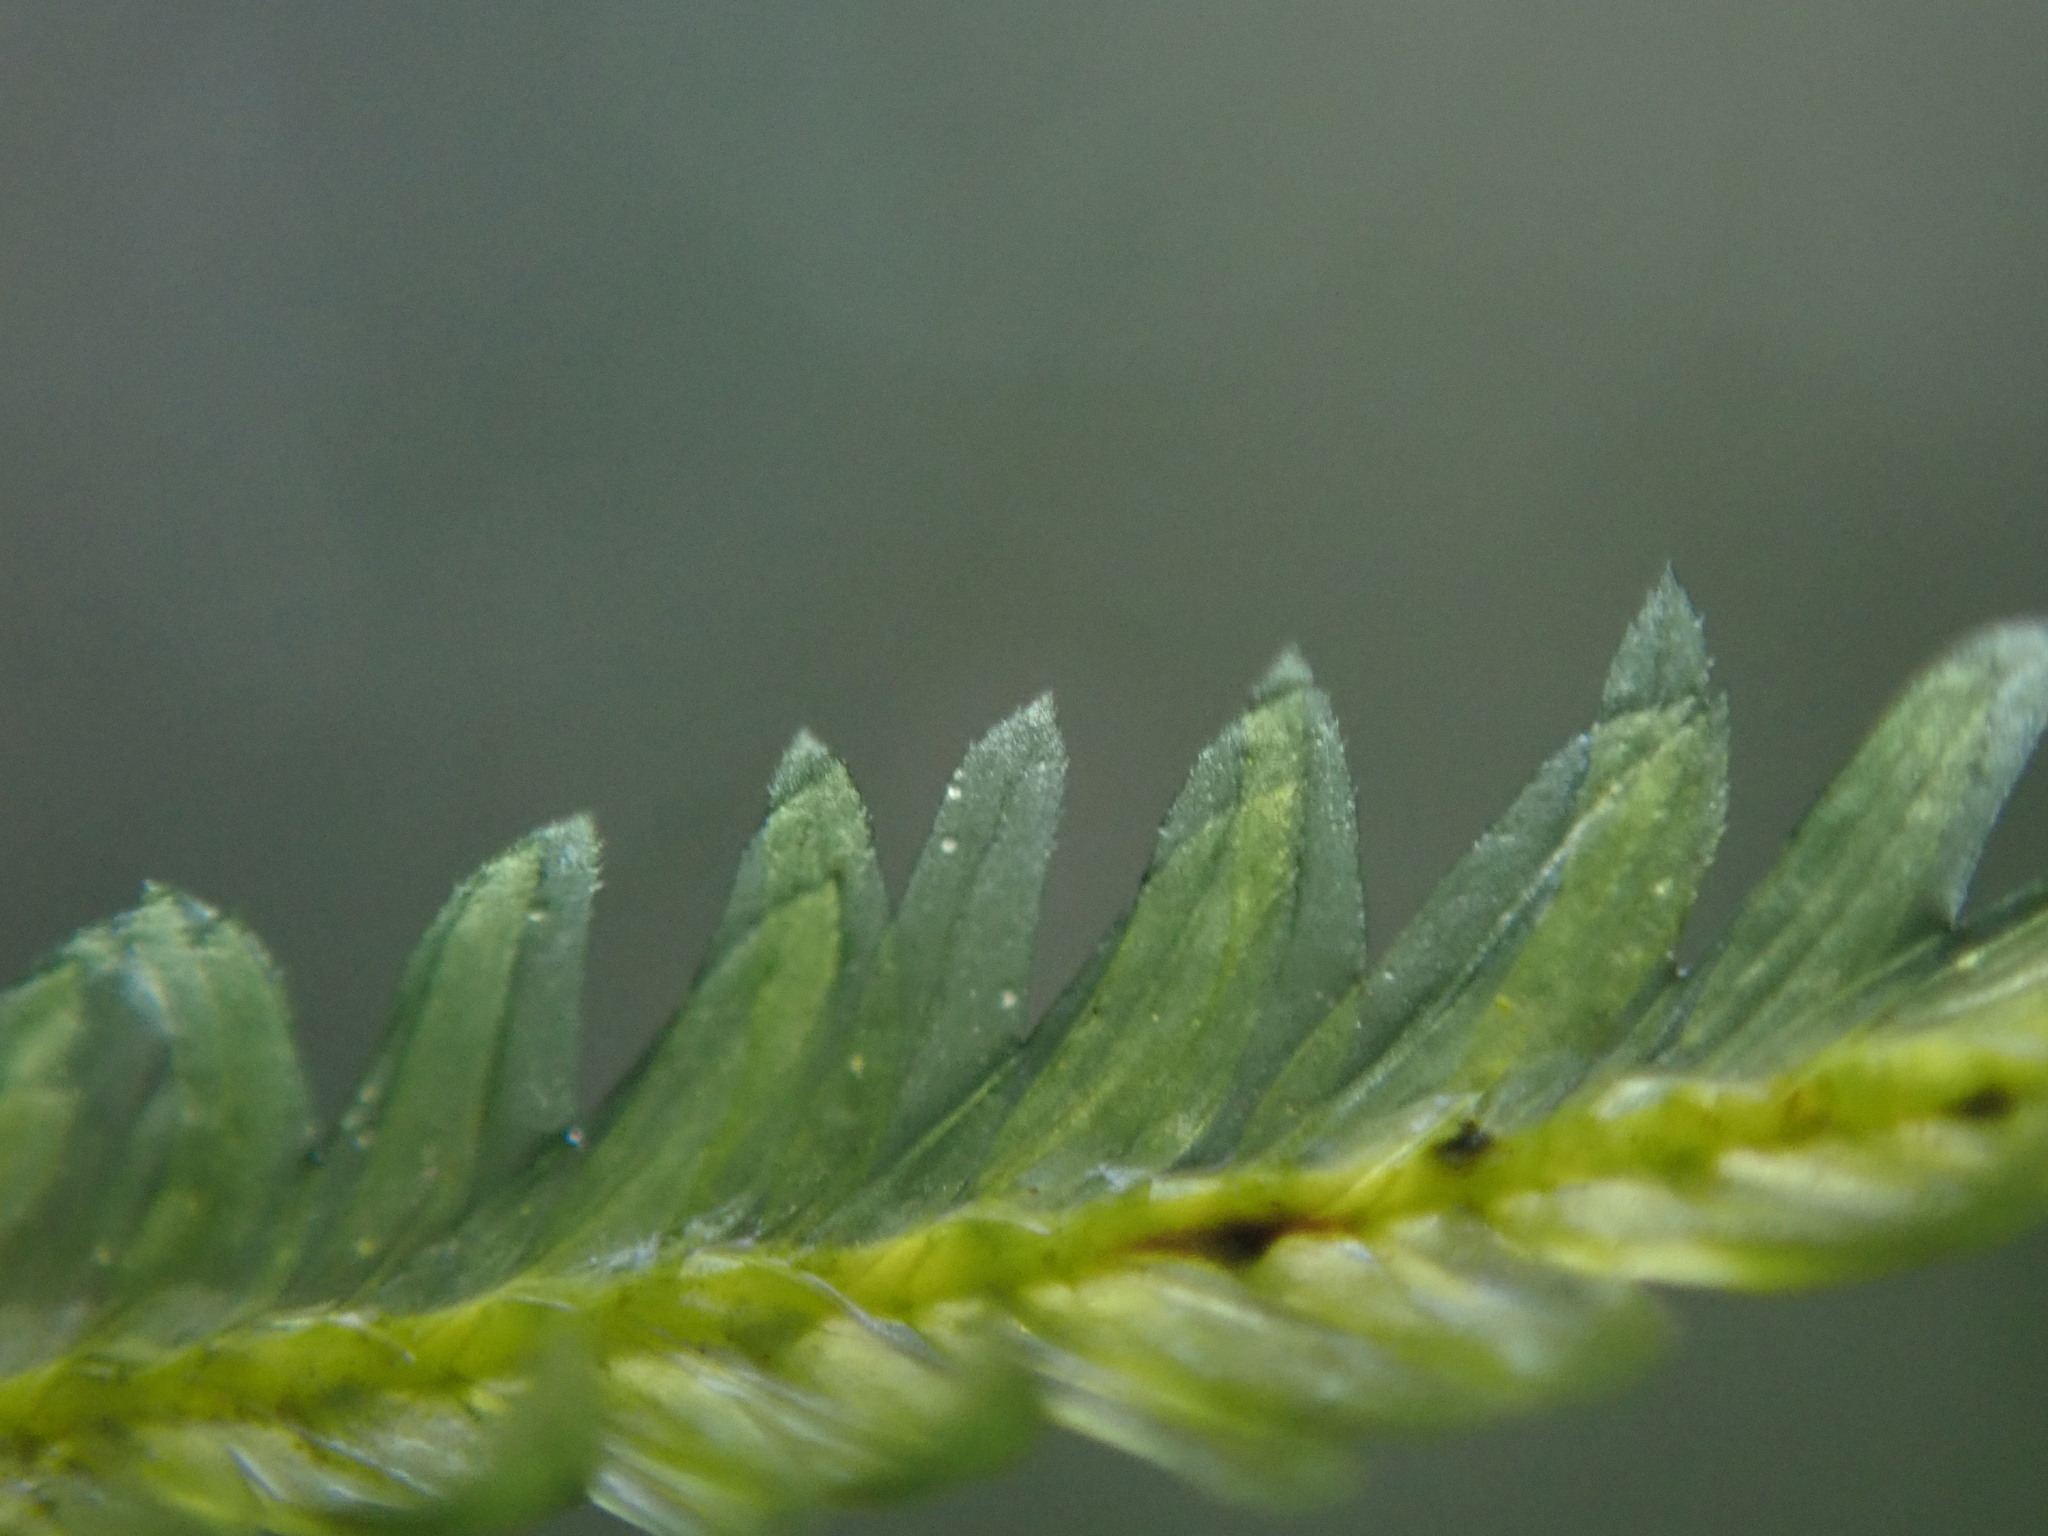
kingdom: Plantae
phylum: Bryophyta
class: Bryopsida
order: Hypnales
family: Neckeraceae
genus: Dannorrisia
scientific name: Dannorrisia bigelovii
